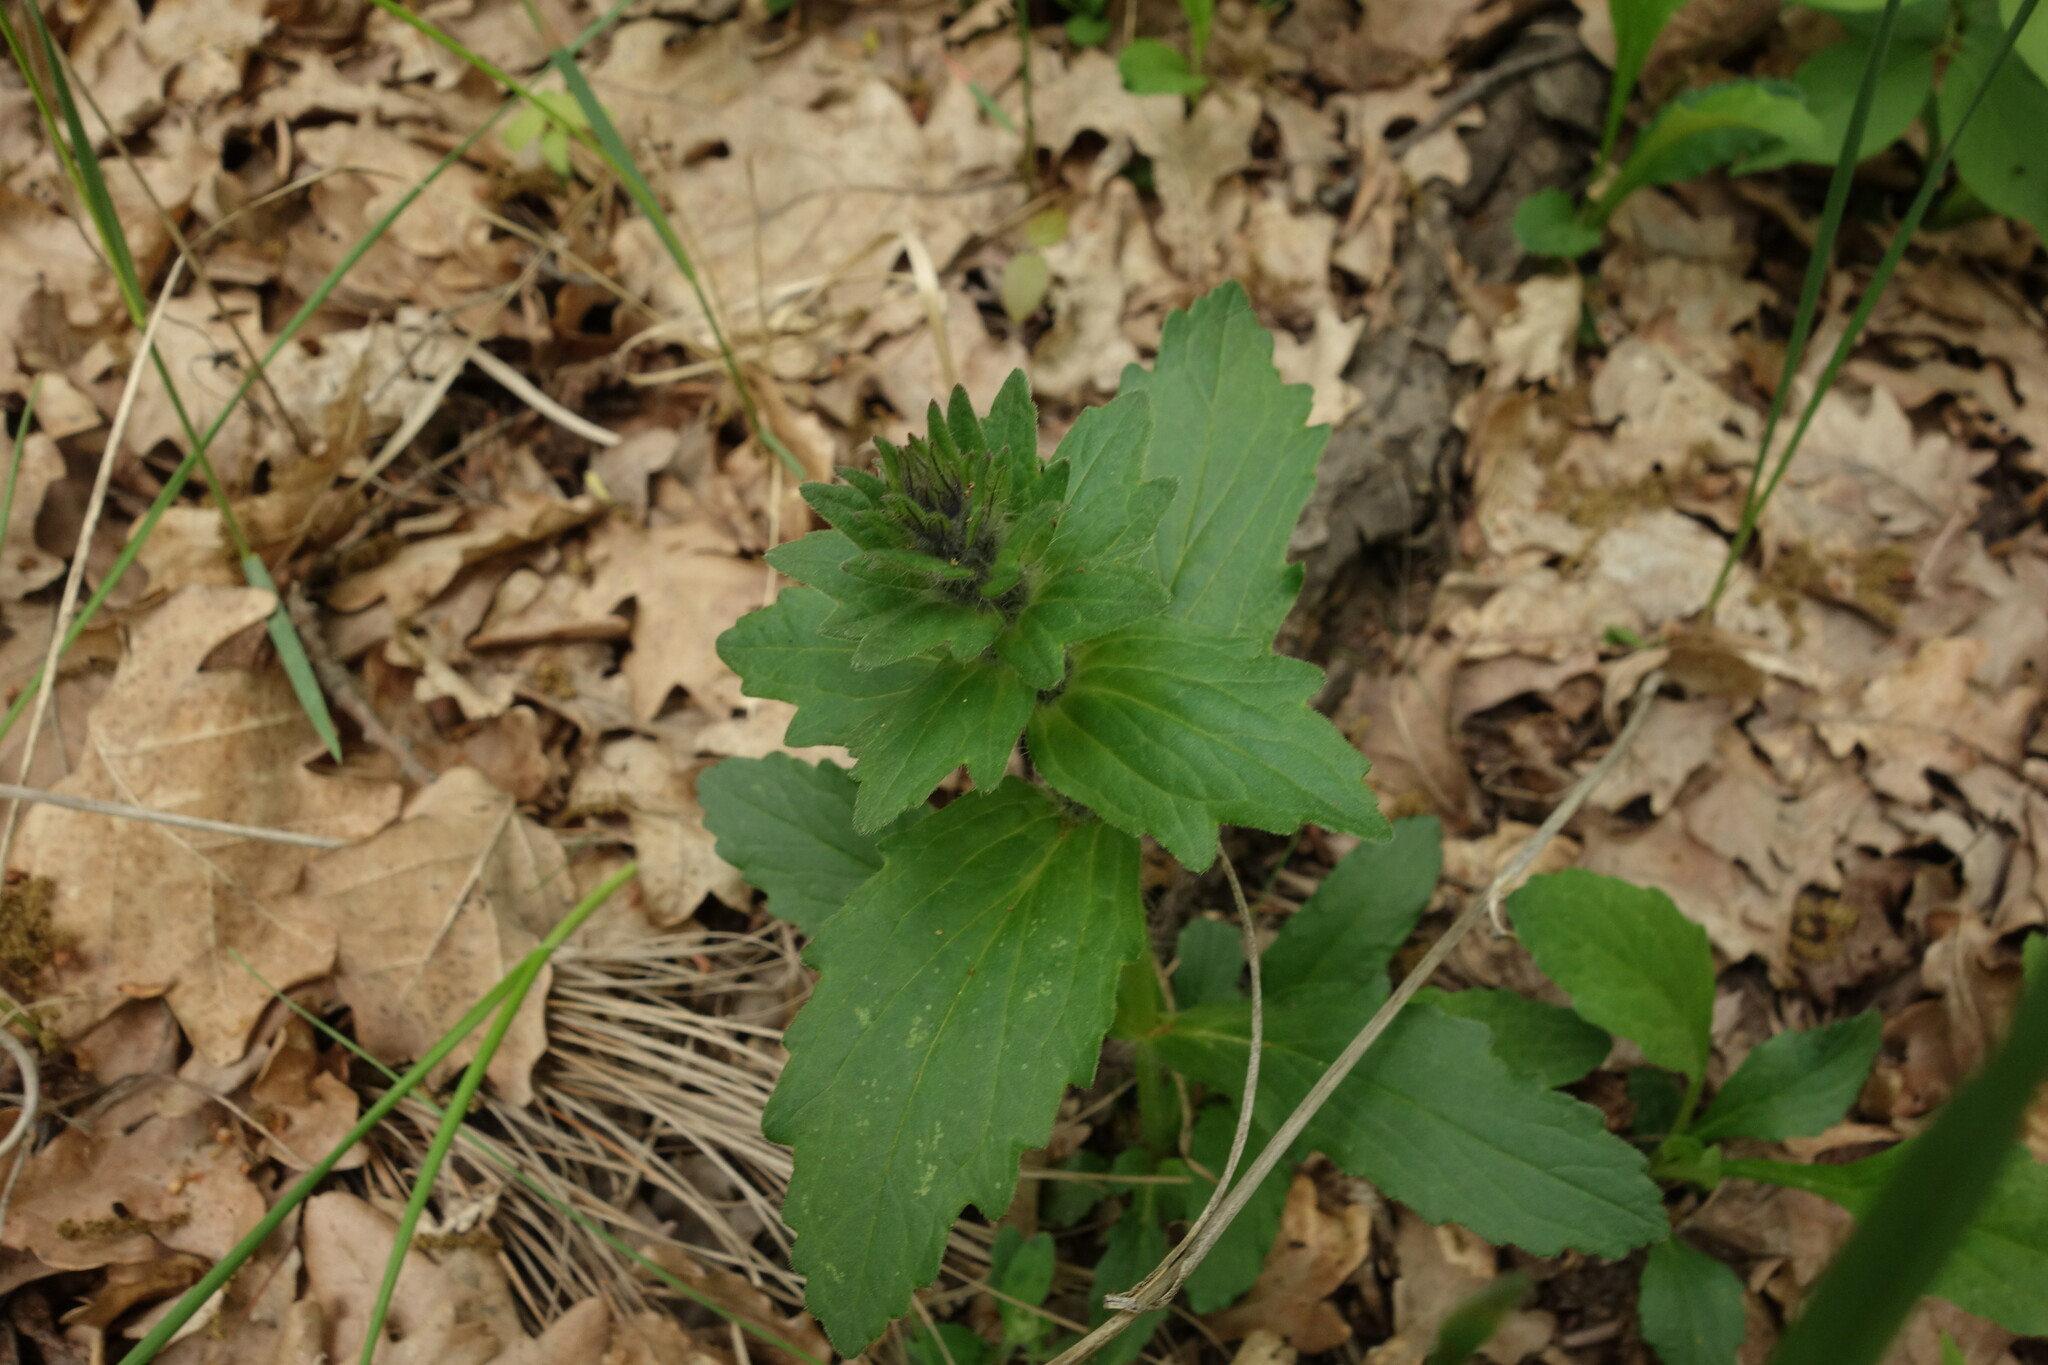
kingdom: Plantae
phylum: Tracheophyta
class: Magnoliopsida
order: Lamiales
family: Lamiaceae
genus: Ajuga
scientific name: Ajuga genevensis
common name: Blue bugle
